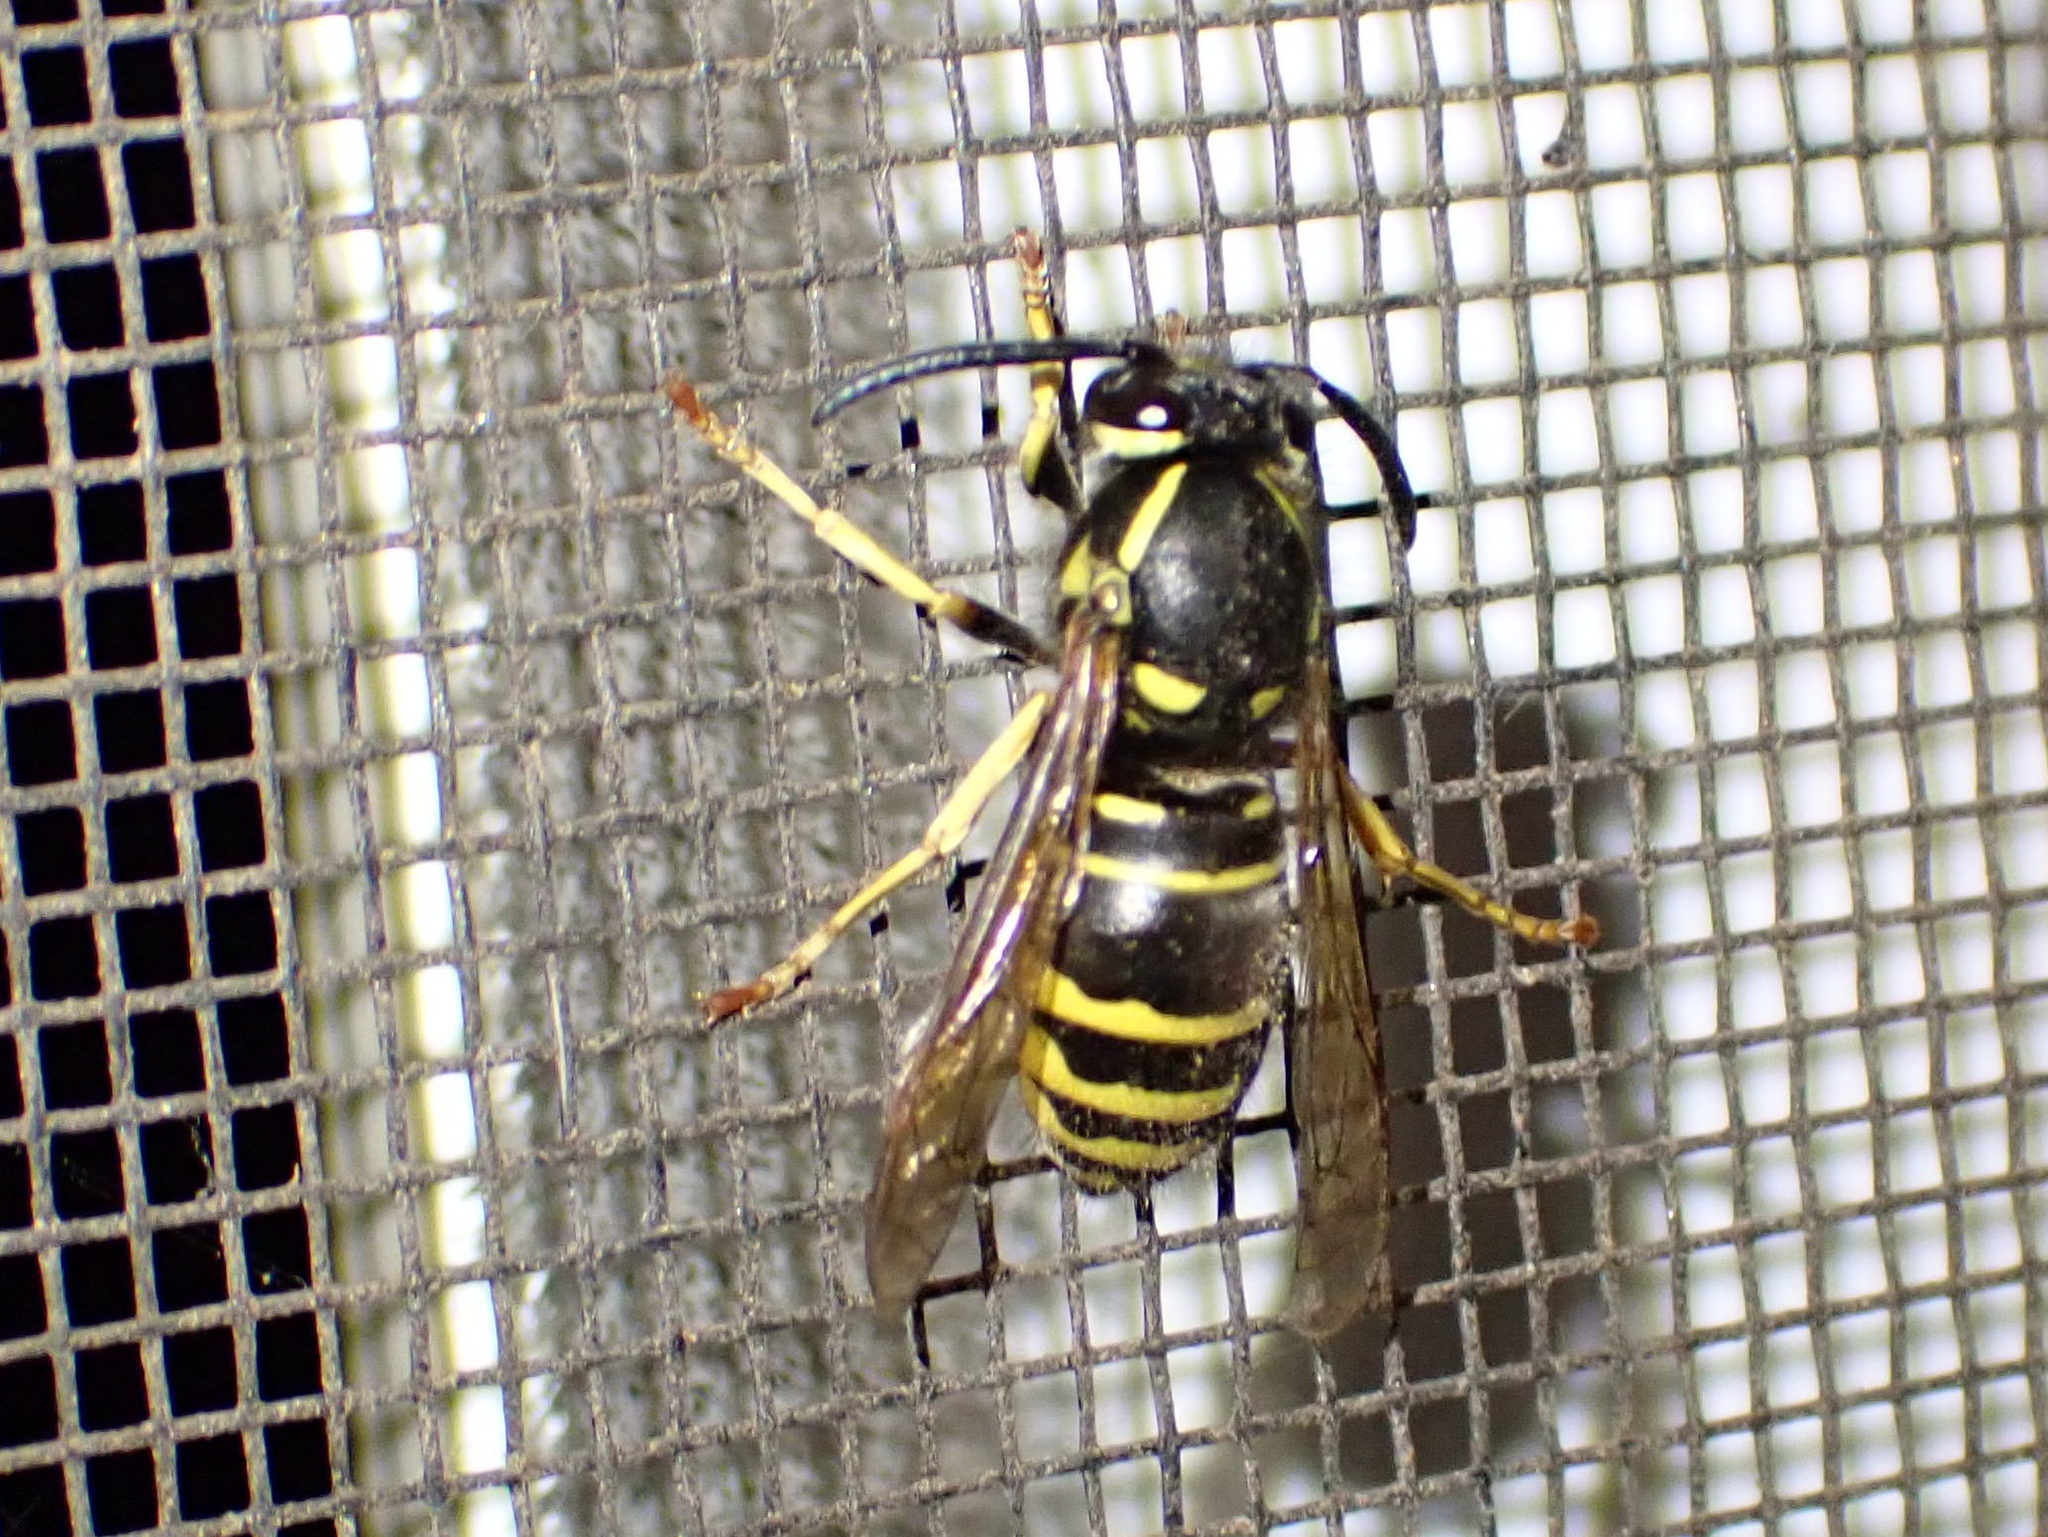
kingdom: Animalia
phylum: Arthropoda
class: Insecta
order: Hymenoptera
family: Vespidae
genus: Vespula
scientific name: Vespula acadica
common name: Forest yellowjacket
